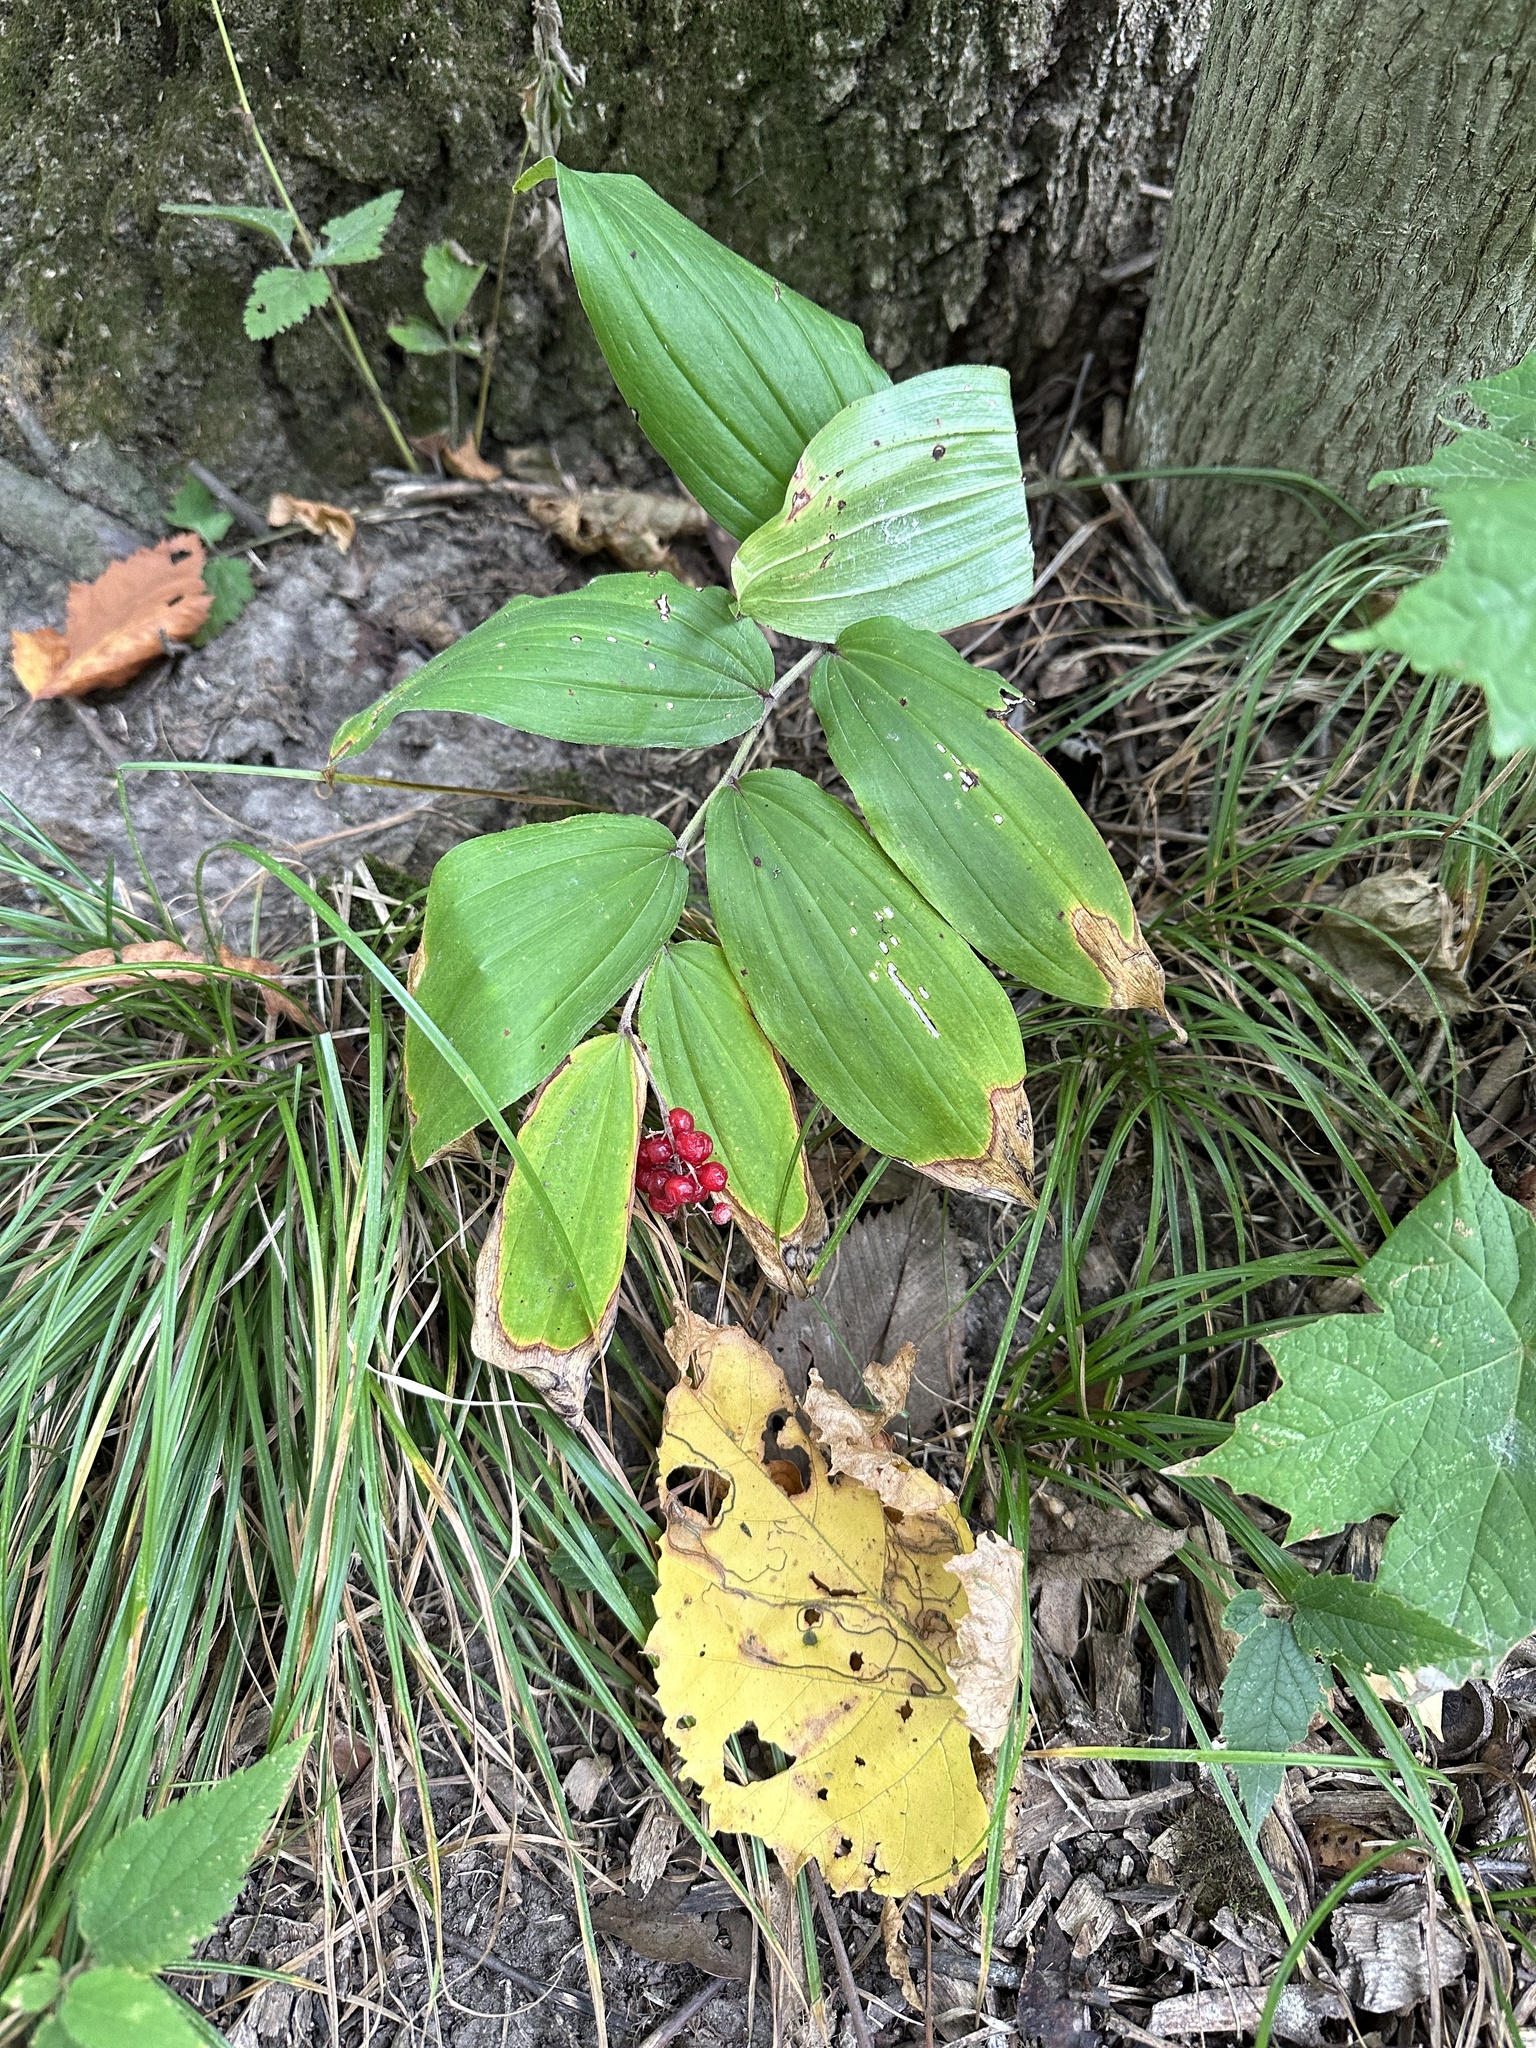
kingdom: Plantae
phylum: Tracheophyta
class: Liliopsida
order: Asparagales
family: Asparagaceae
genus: Maianthemum
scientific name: Maianthemum racemosum
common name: False spikenard
